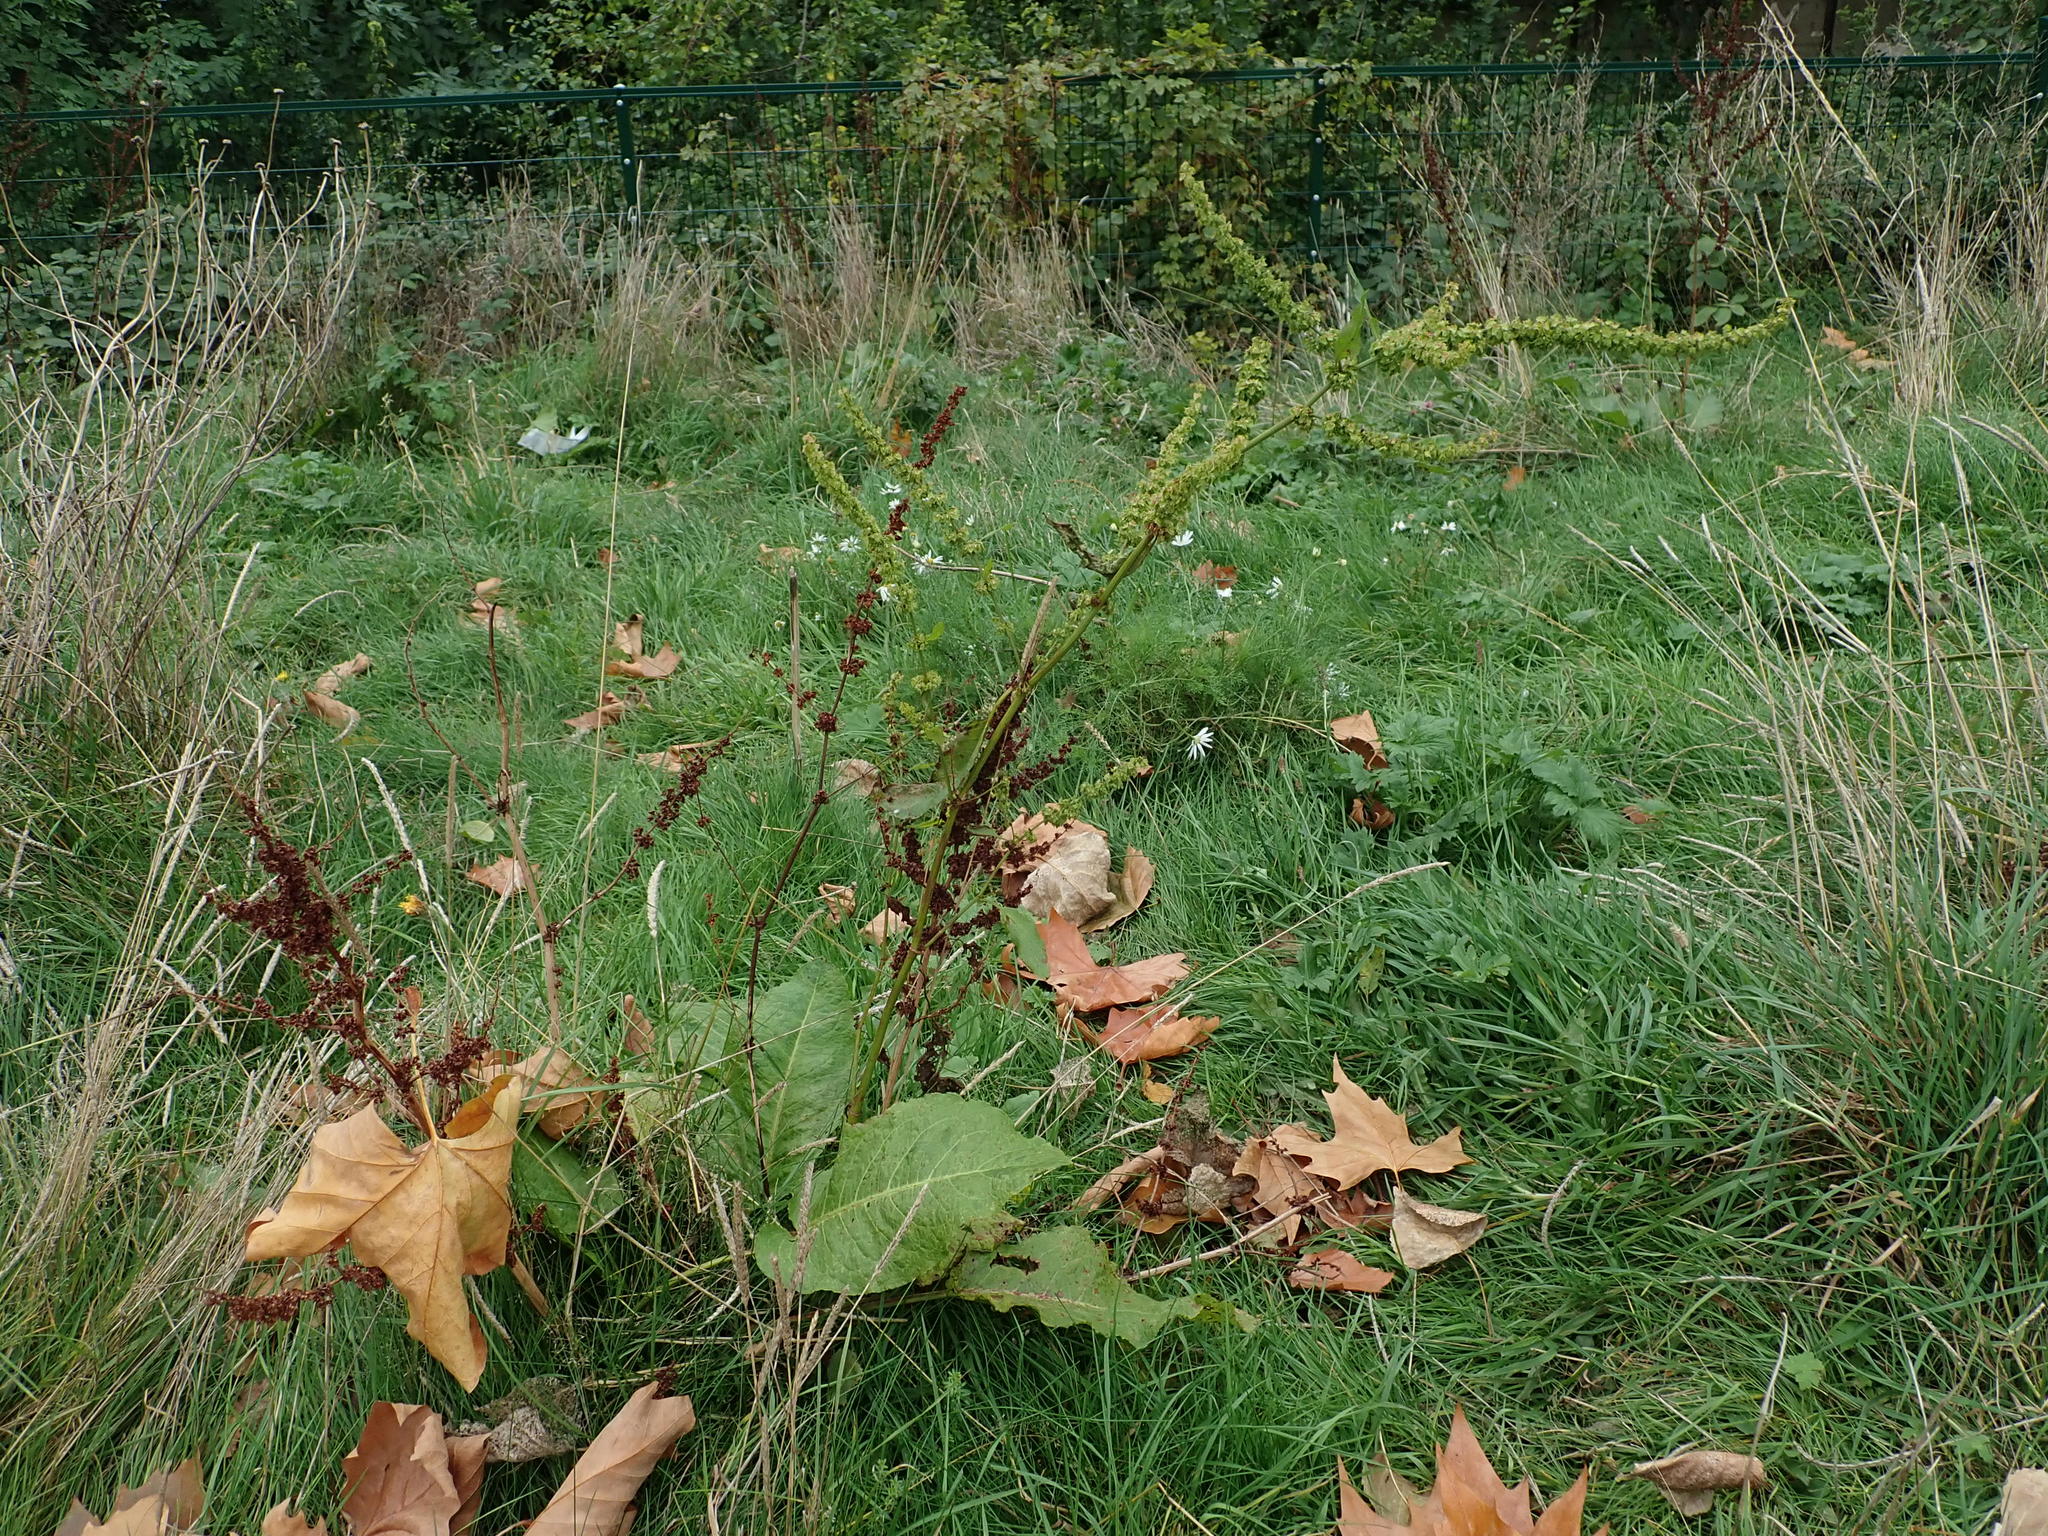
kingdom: Plantae
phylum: Tracheophyta
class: Magnoliopsida
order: Caryophyllales
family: Polygonaceae
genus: Rumex
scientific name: Rumex obtusifolius
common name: Bitter dock
